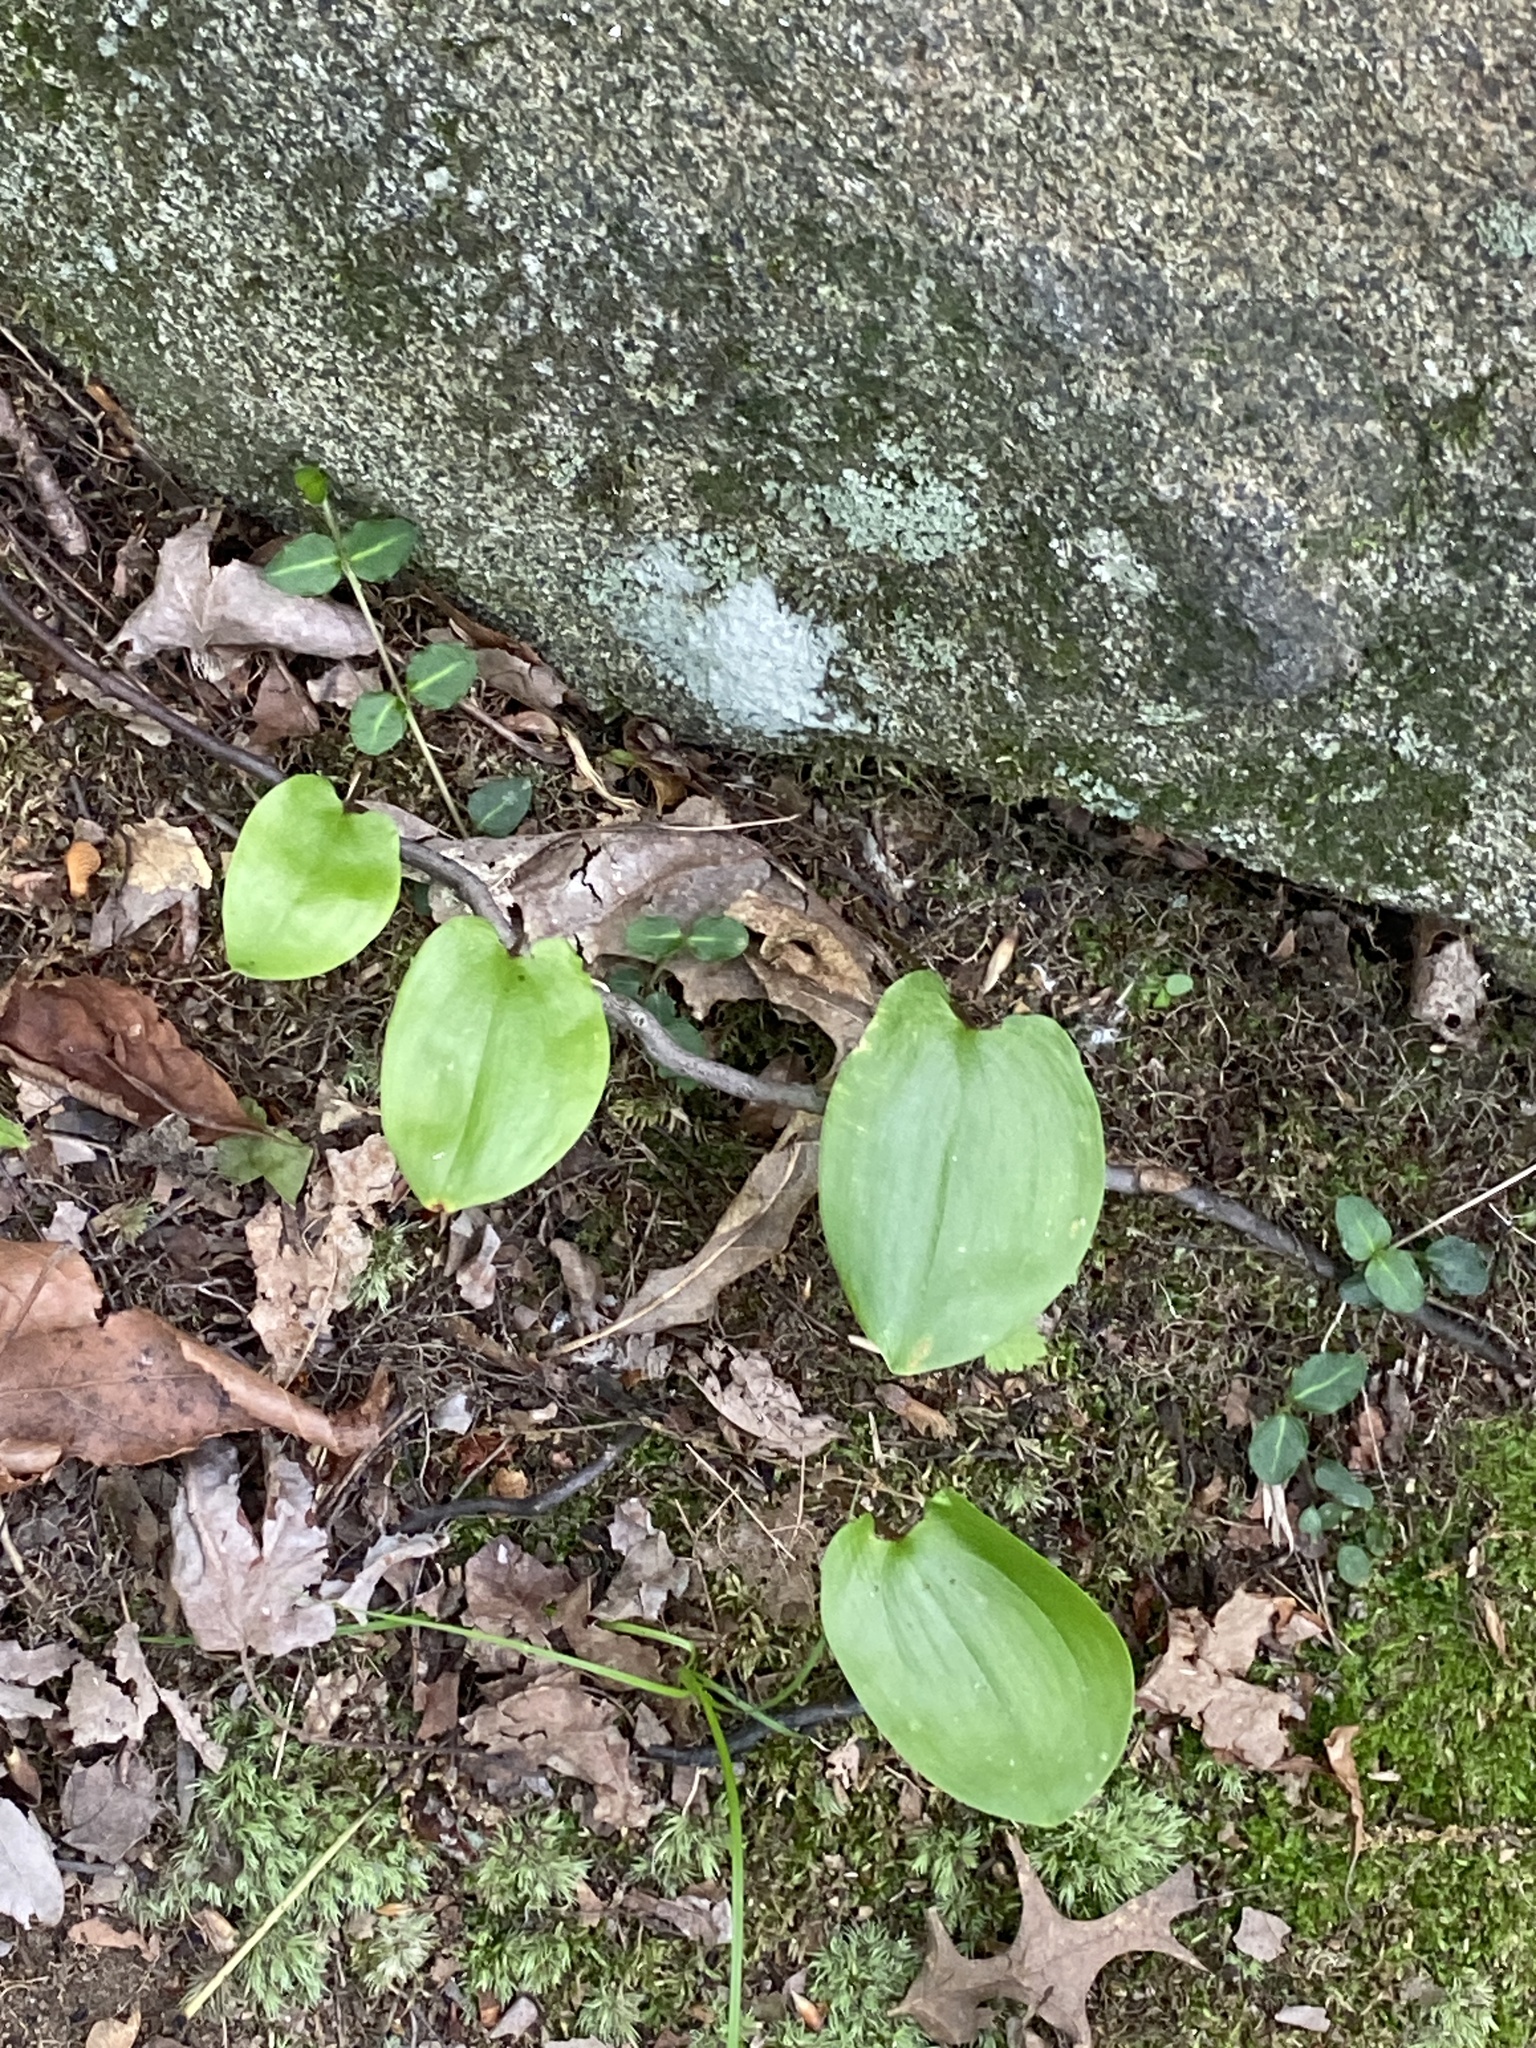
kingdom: Plantae
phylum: Tracheophyta
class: Liliopsida
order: Asparagales
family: Asparagaceae
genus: Maianthemum
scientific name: Maianthemum canadense
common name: False lily-of-the-valley
